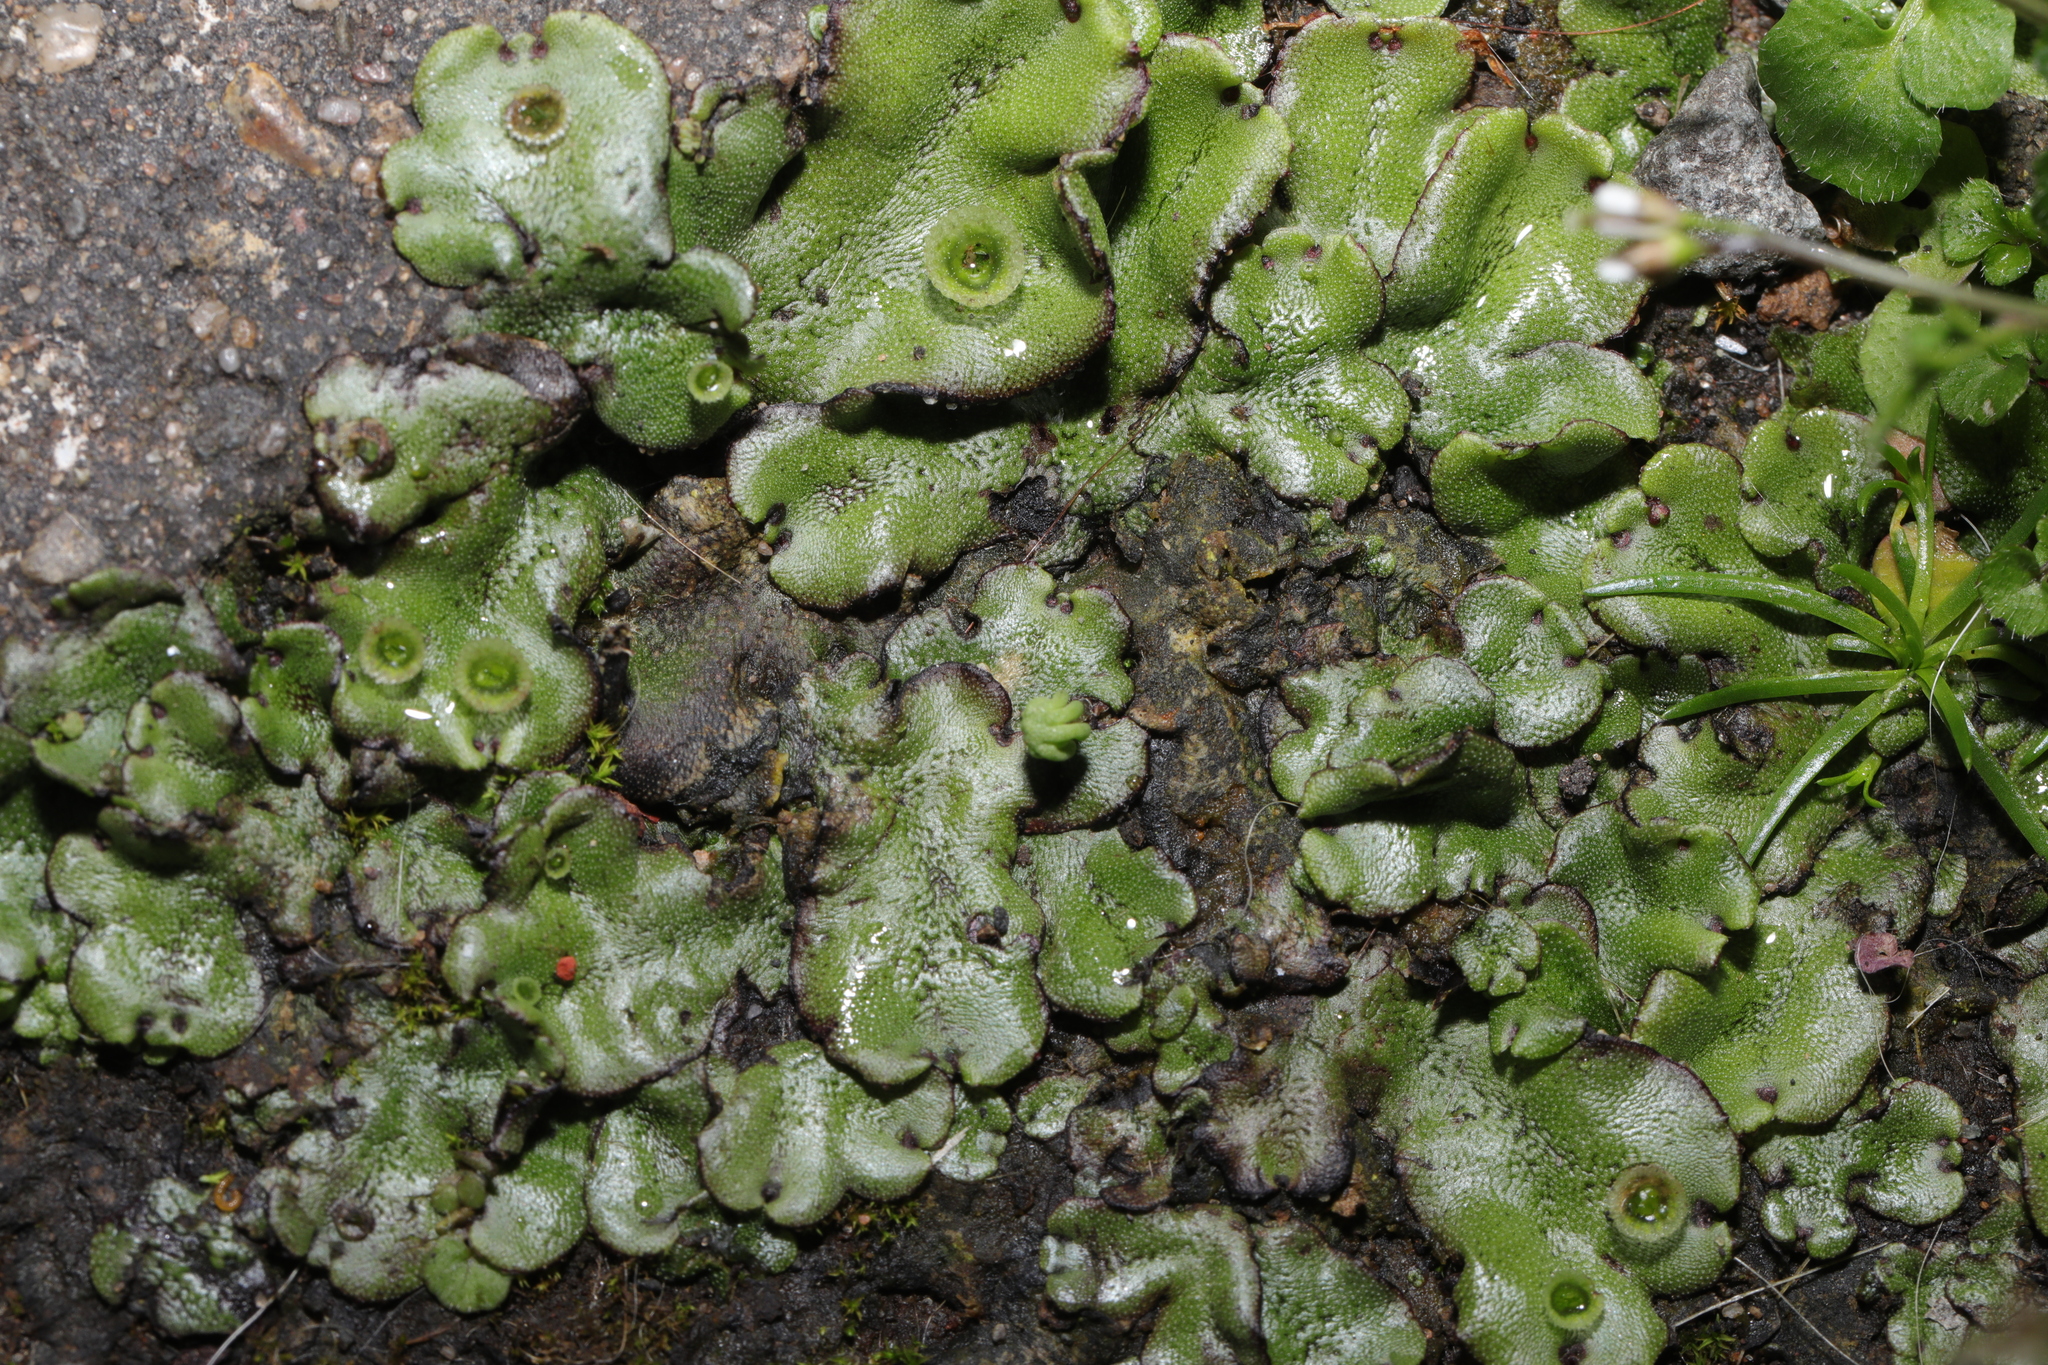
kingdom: Plantae
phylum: Marchantiophyta
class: Marchantiopsida
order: Marchantiales
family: Marchantiaceae
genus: Marchantia
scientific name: Marchantia polymorpha
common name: Common liverwort
